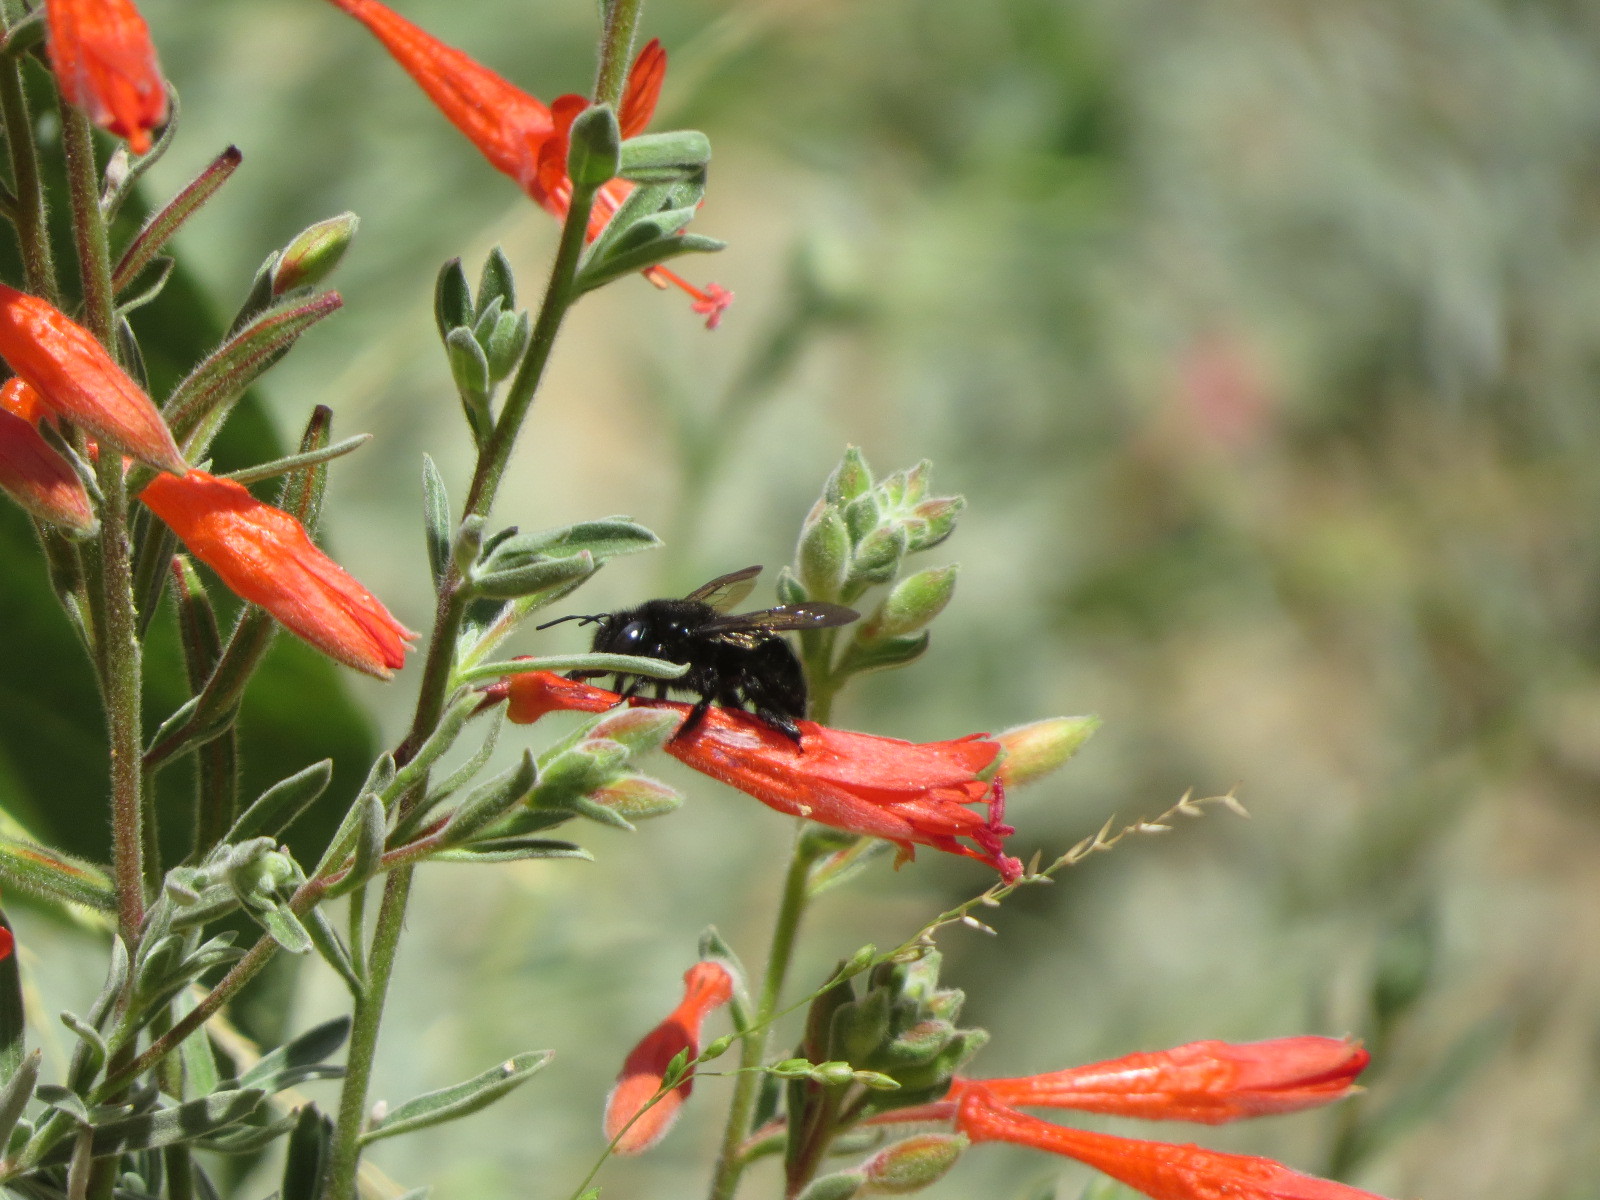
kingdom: Animalia
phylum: Arthropoda
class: Insecta
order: Hymenoptera
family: Apidae
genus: Xylocopa
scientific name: Xylocopa tabaniformis
